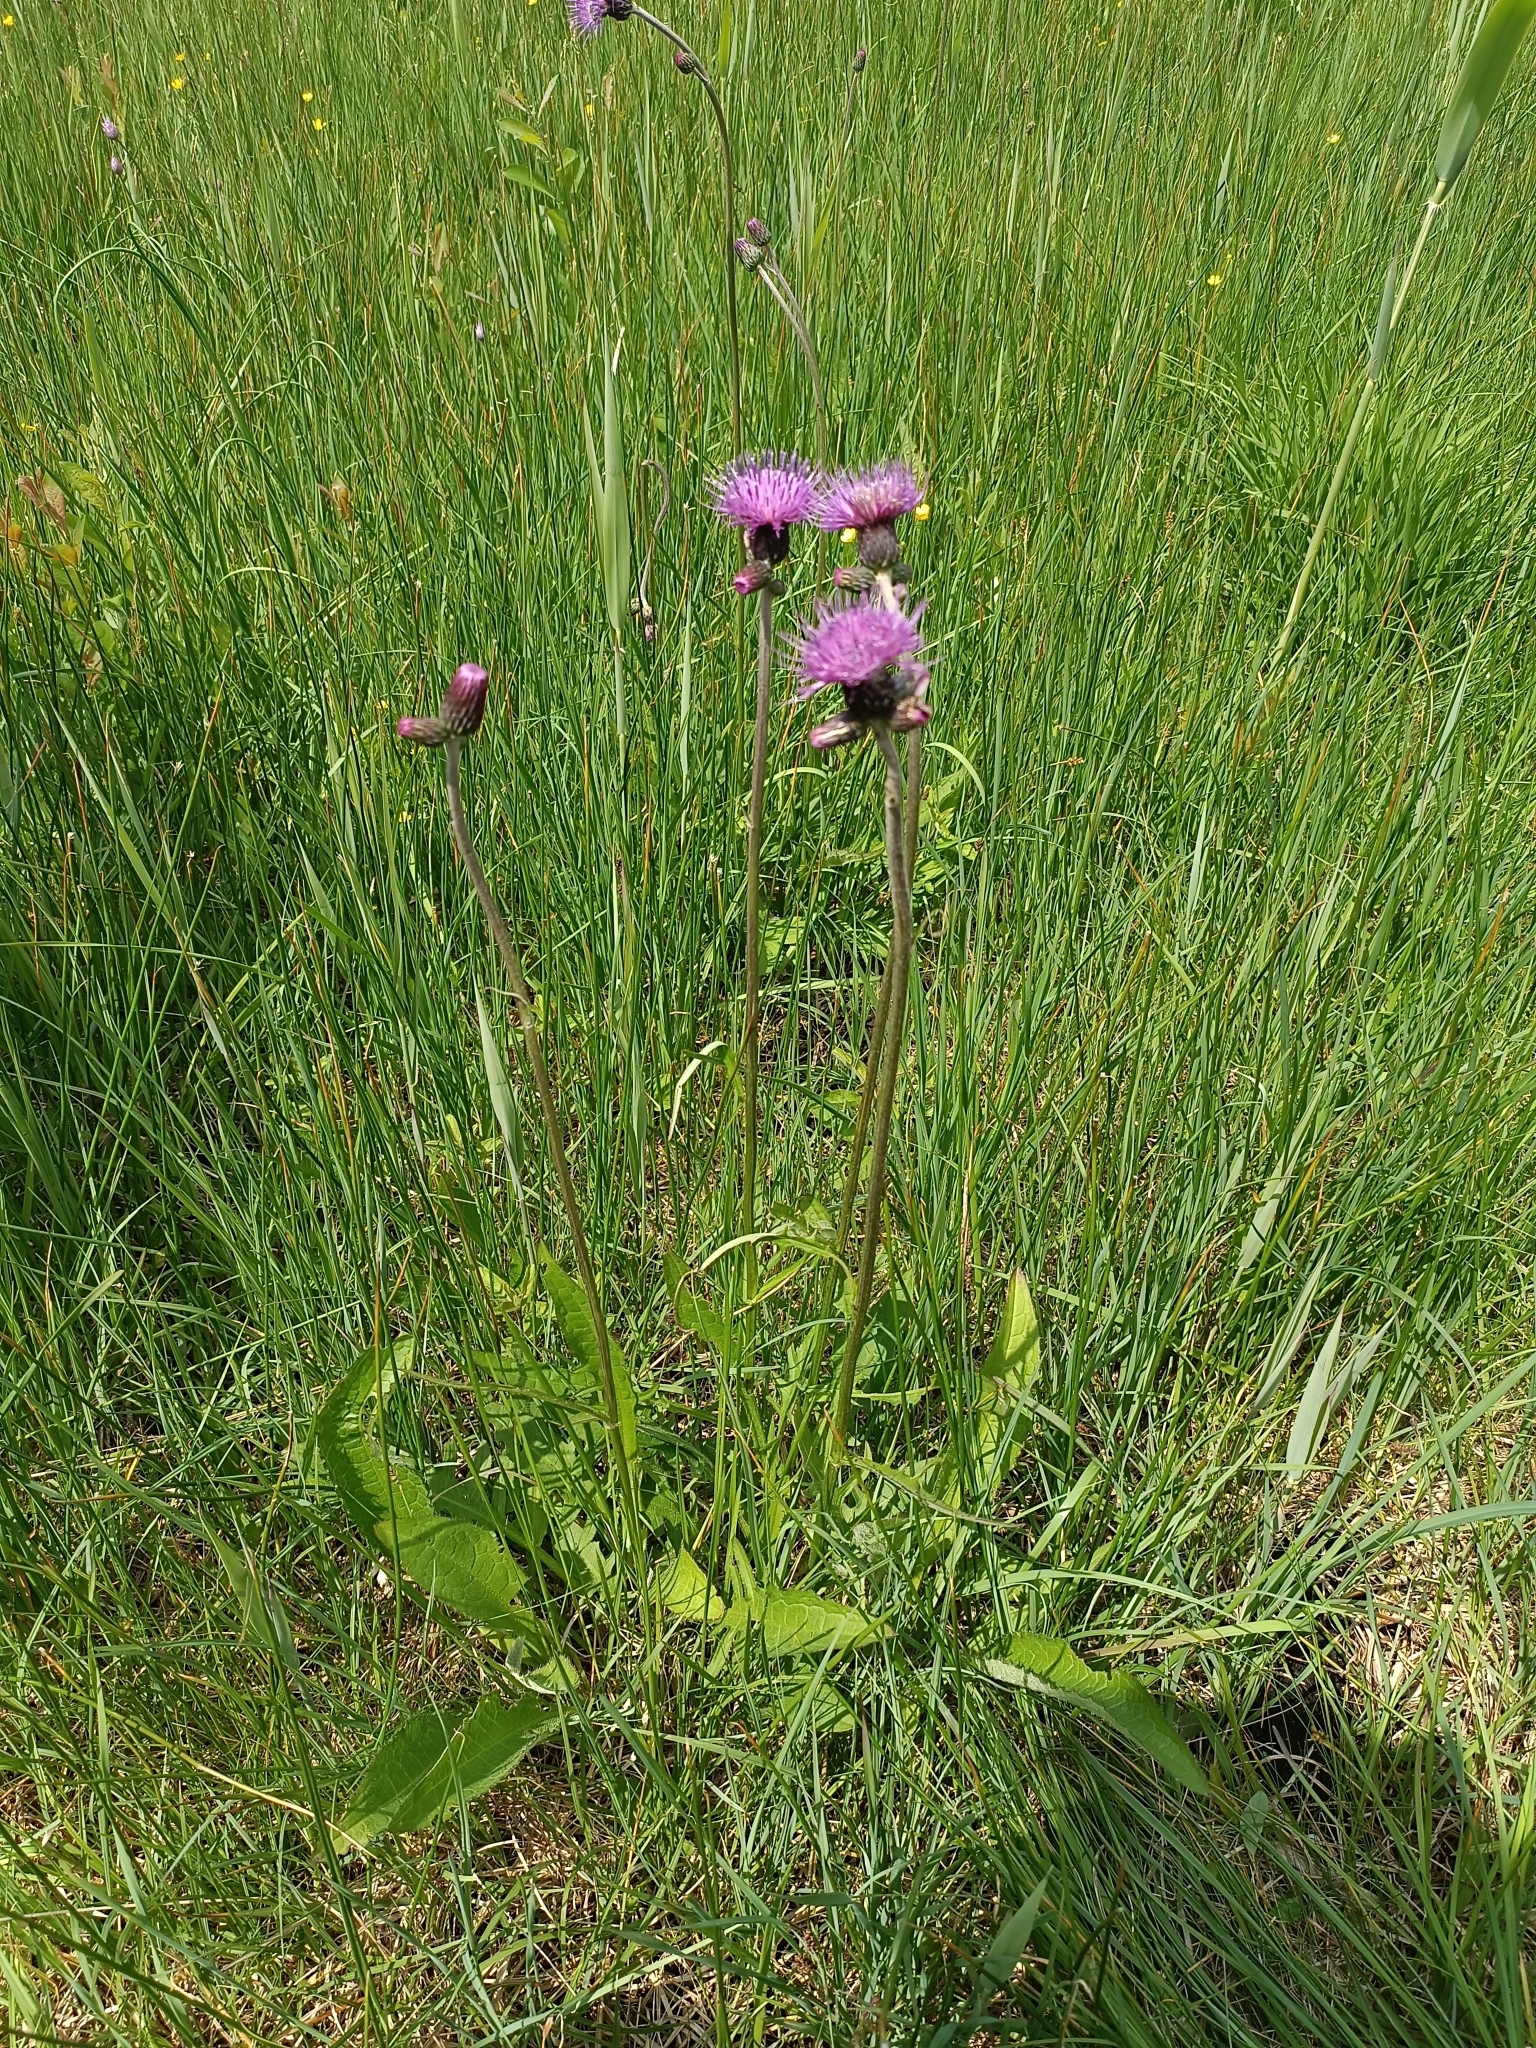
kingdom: Plantae
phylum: Tracheophyta
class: Magnoliopsida
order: Asterales
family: Asteraceae
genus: Cirsium
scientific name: Cirsium rivulare
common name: Brook thistle
